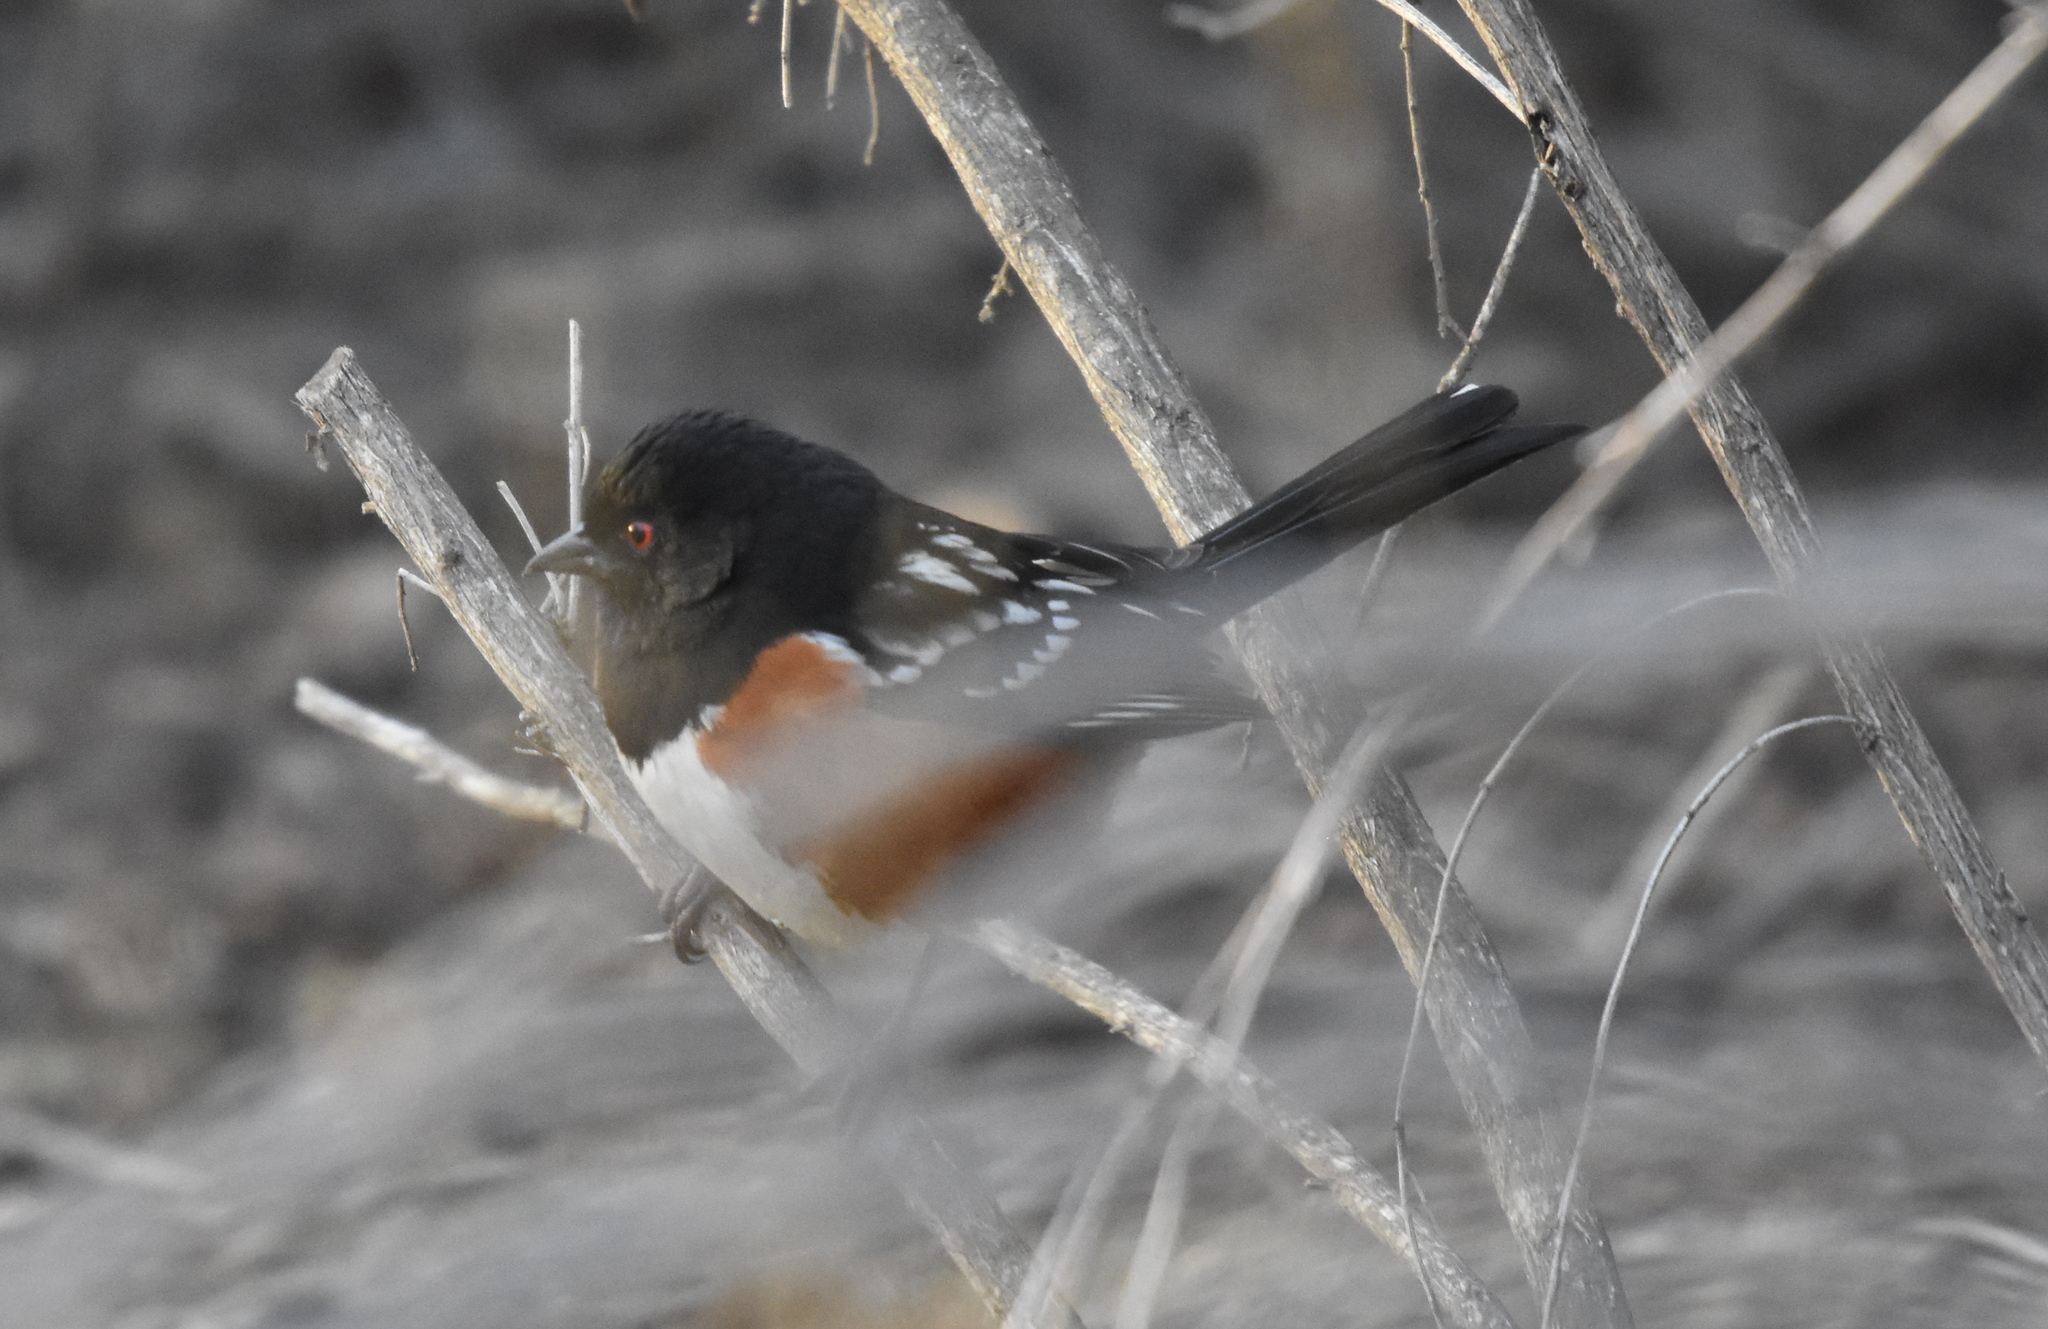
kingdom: Animalia
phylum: Chordata
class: Aves
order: Passeriformes
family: Passerellidae
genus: Pipilo
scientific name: Pipilo maculatus
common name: Spotted towhee
